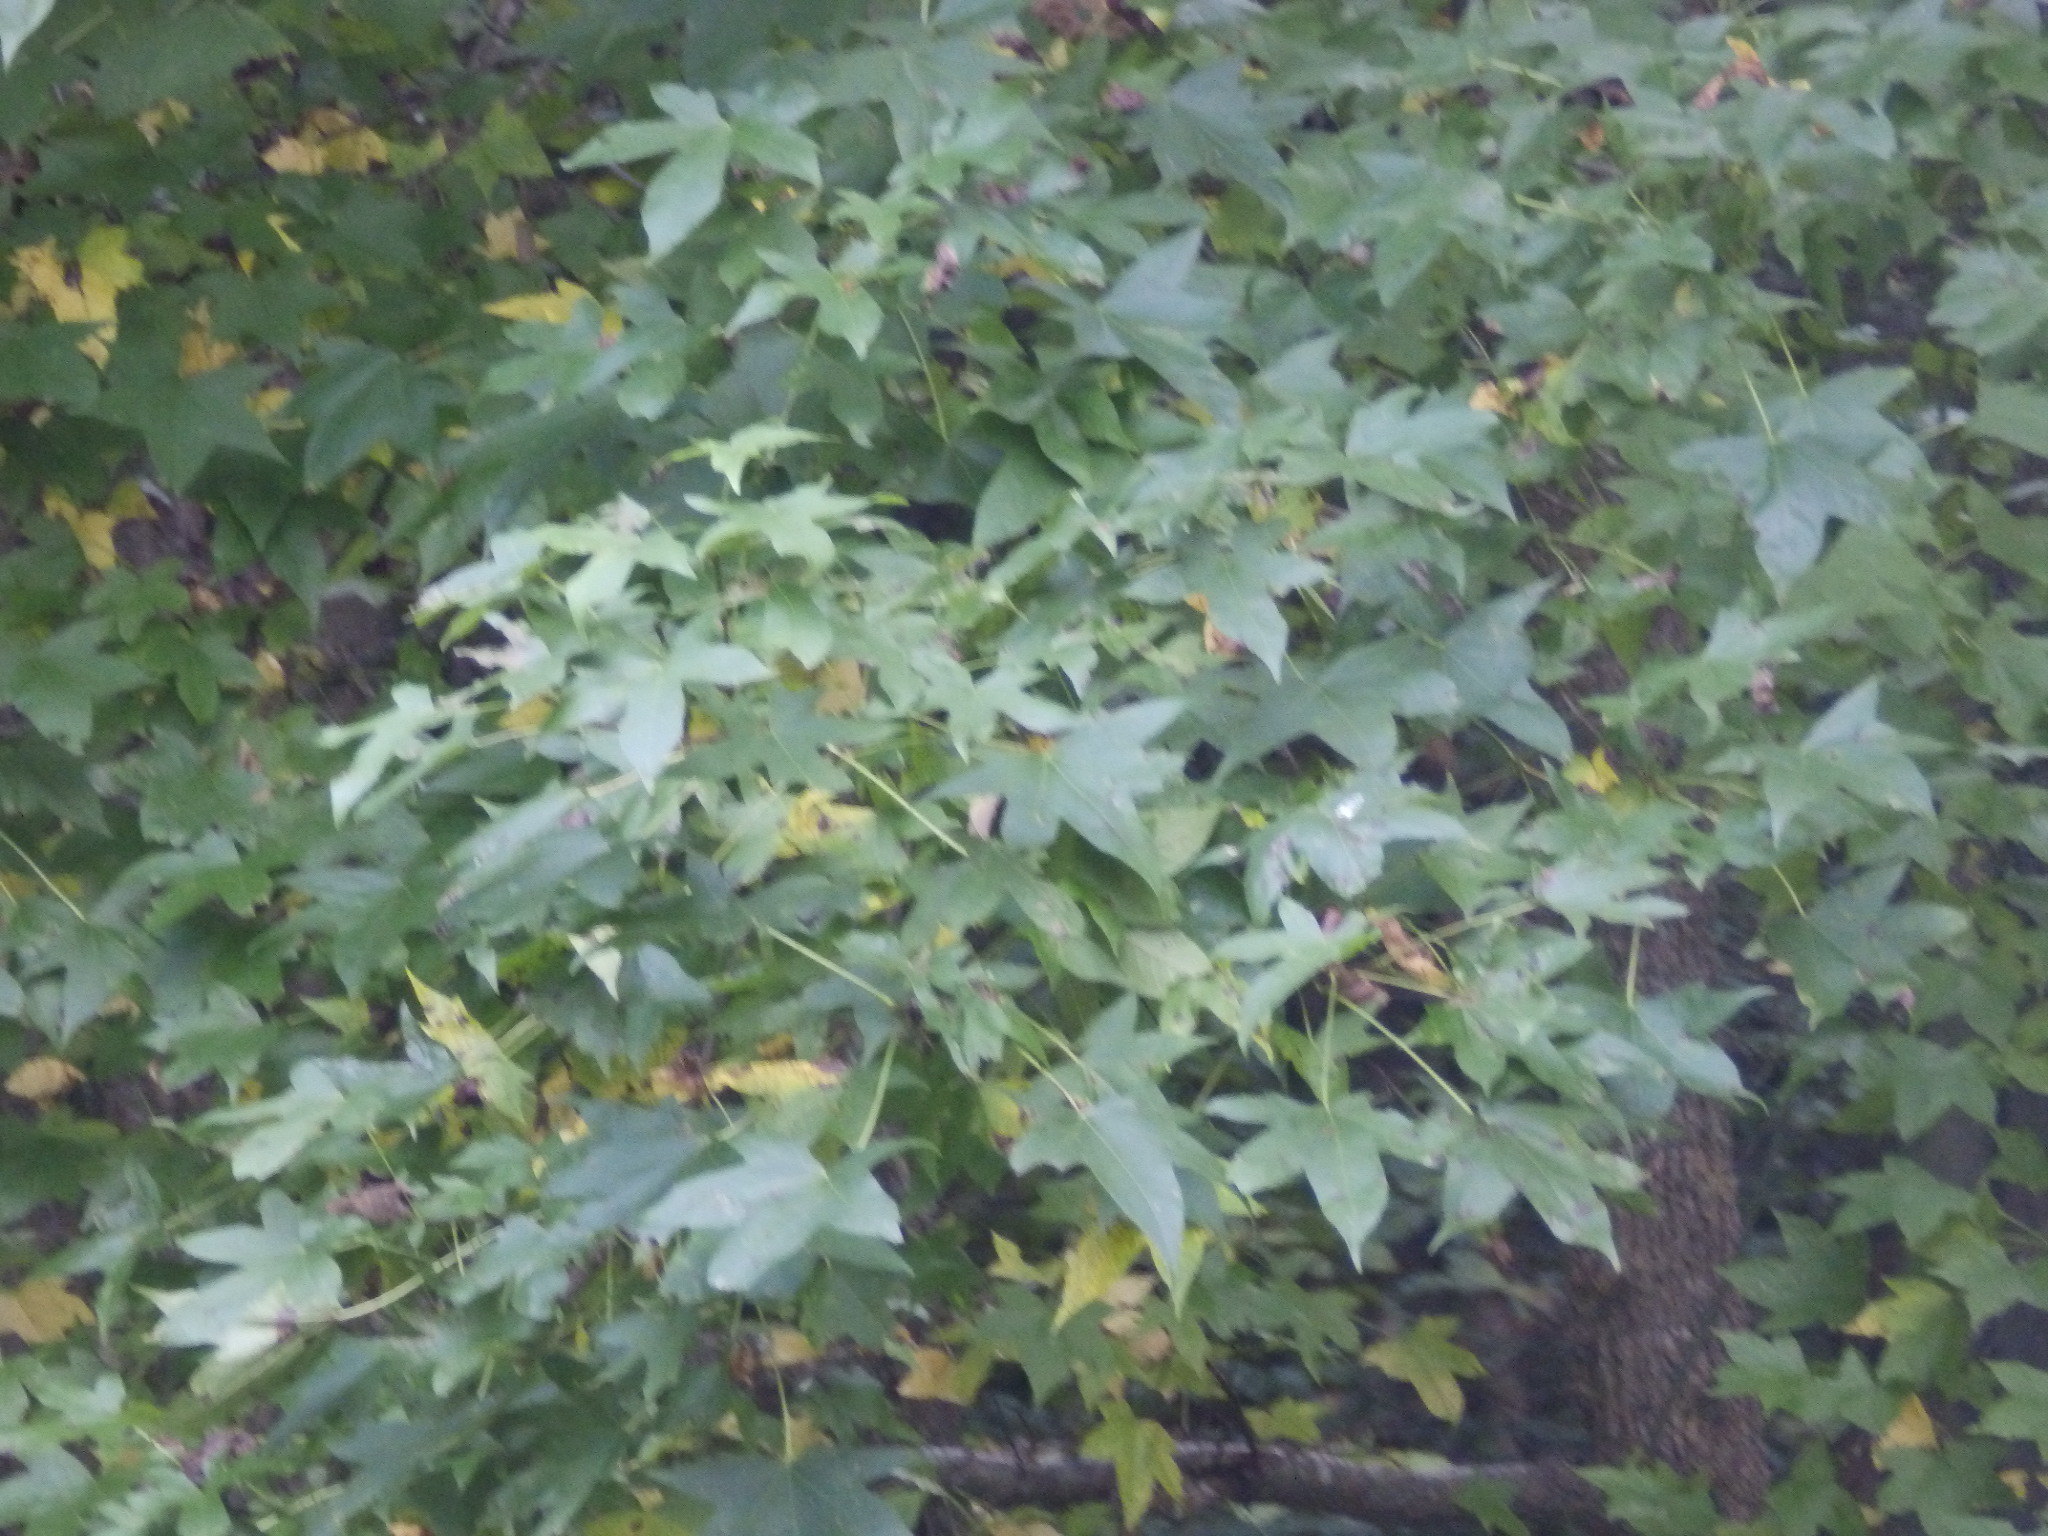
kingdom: Plantae
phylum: Tracheophyta
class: Magnoliopsida
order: Saxifragales
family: Altingiaceae
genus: Liquidambar
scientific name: Liquidambar styraciflua
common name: Sweet gum
